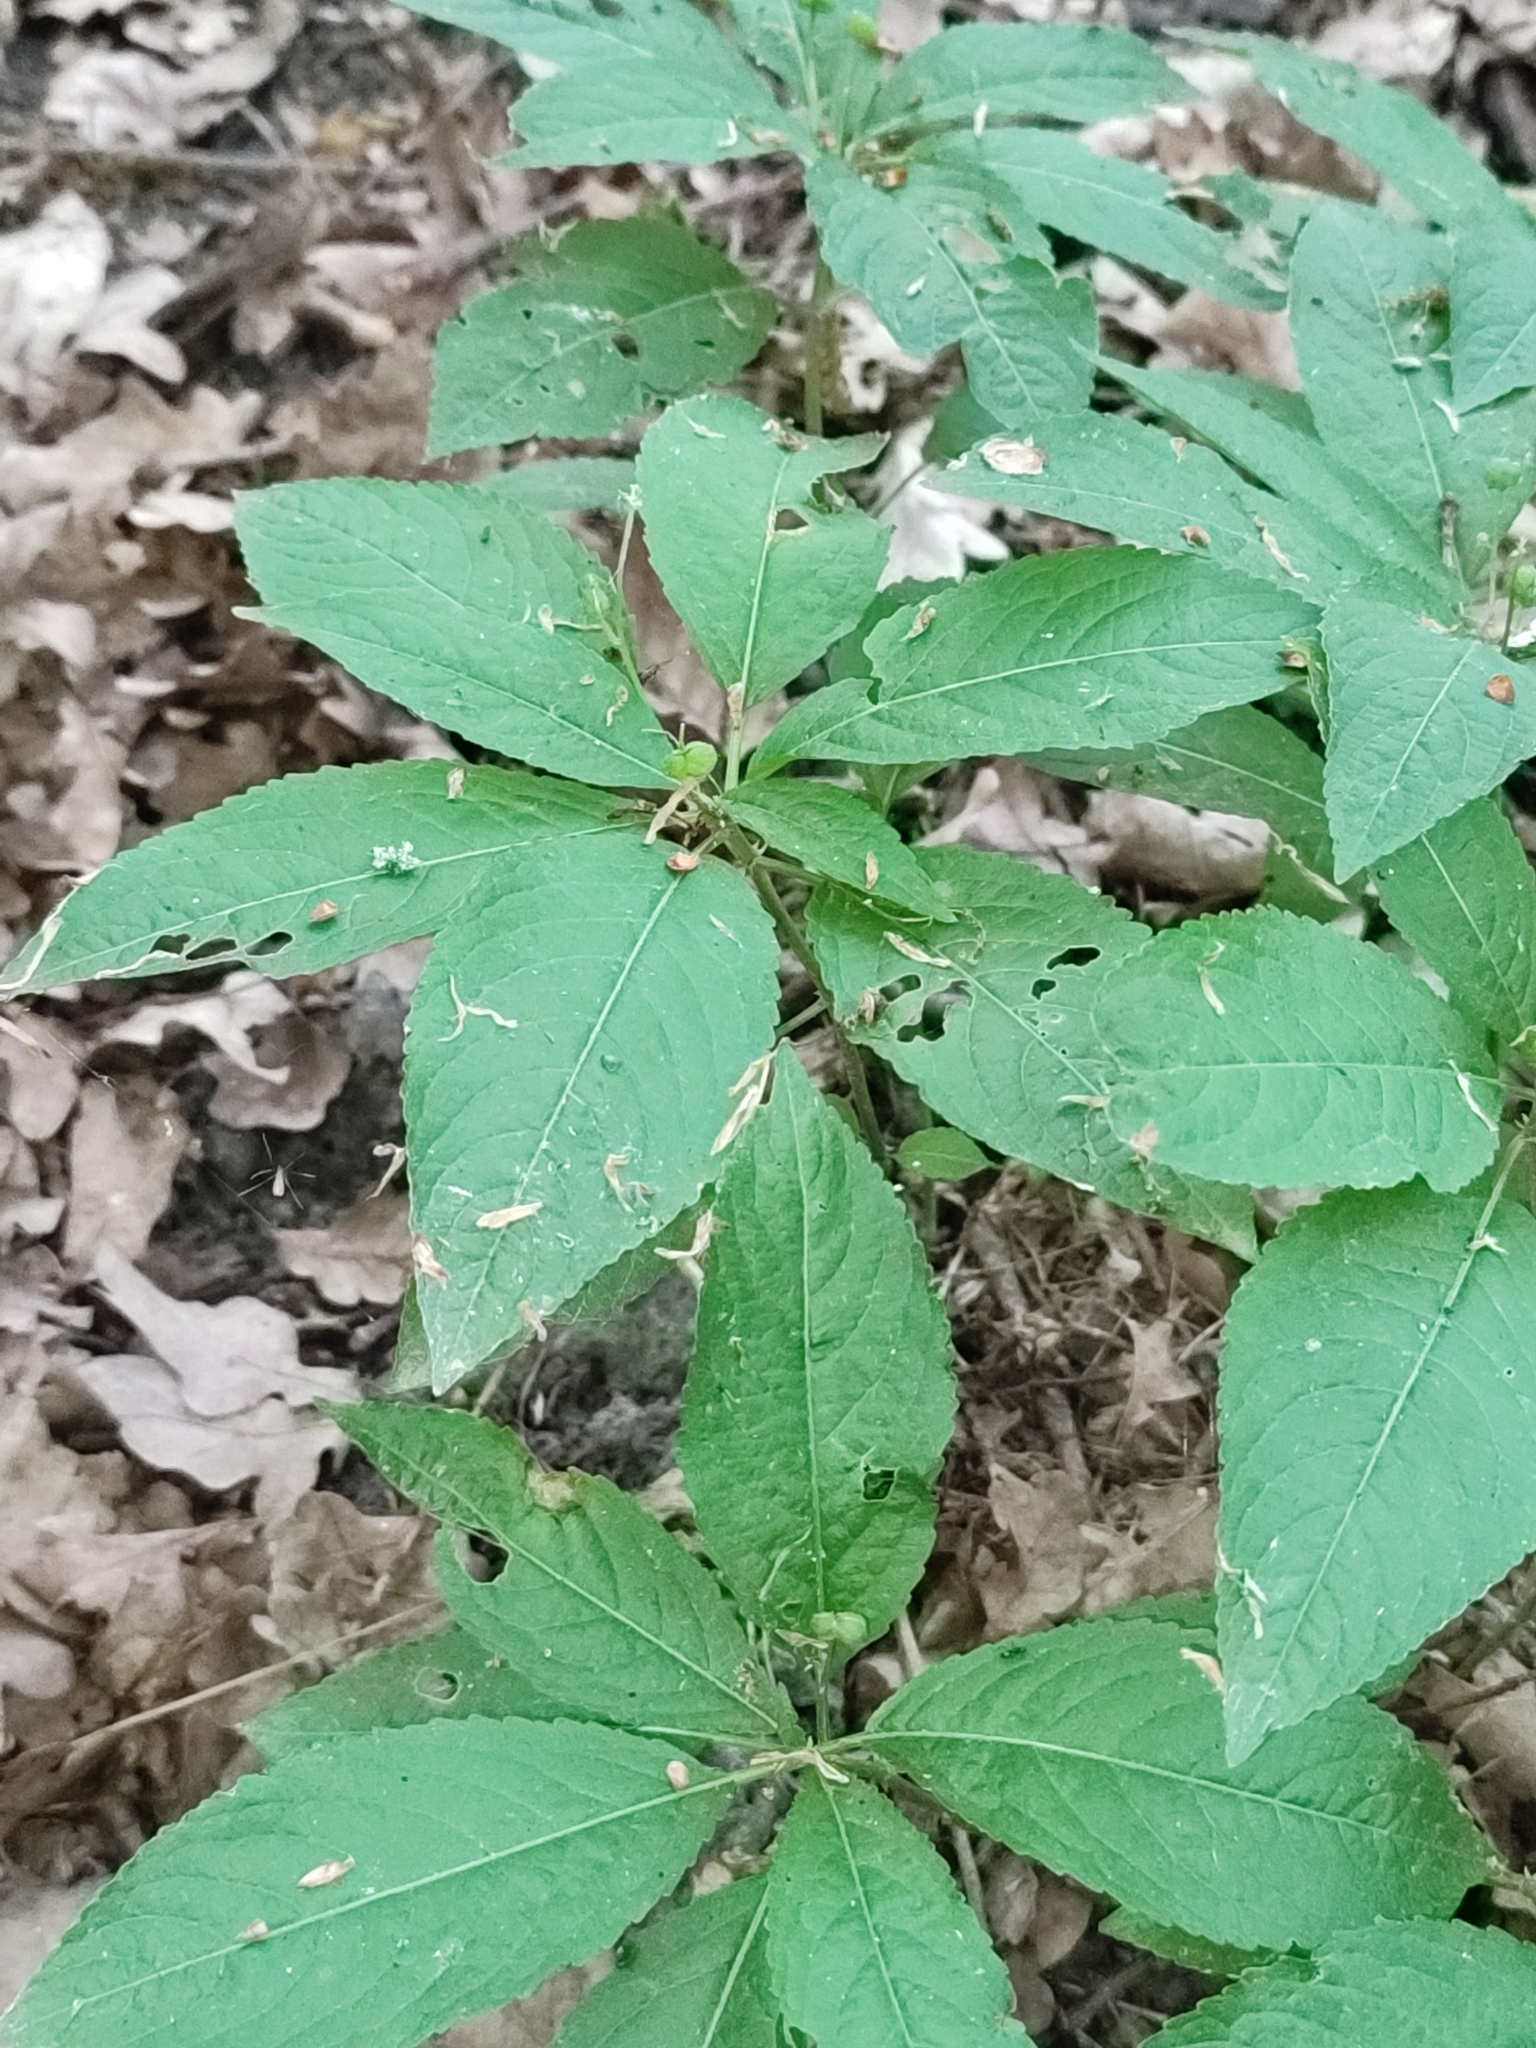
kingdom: Plantae
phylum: Tracheophyta
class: Magnoliopsida
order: Malpighiales
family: Euphorbiaceae
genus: Mercurialis
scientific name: Mercurialis perennis
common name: Dog mercury
